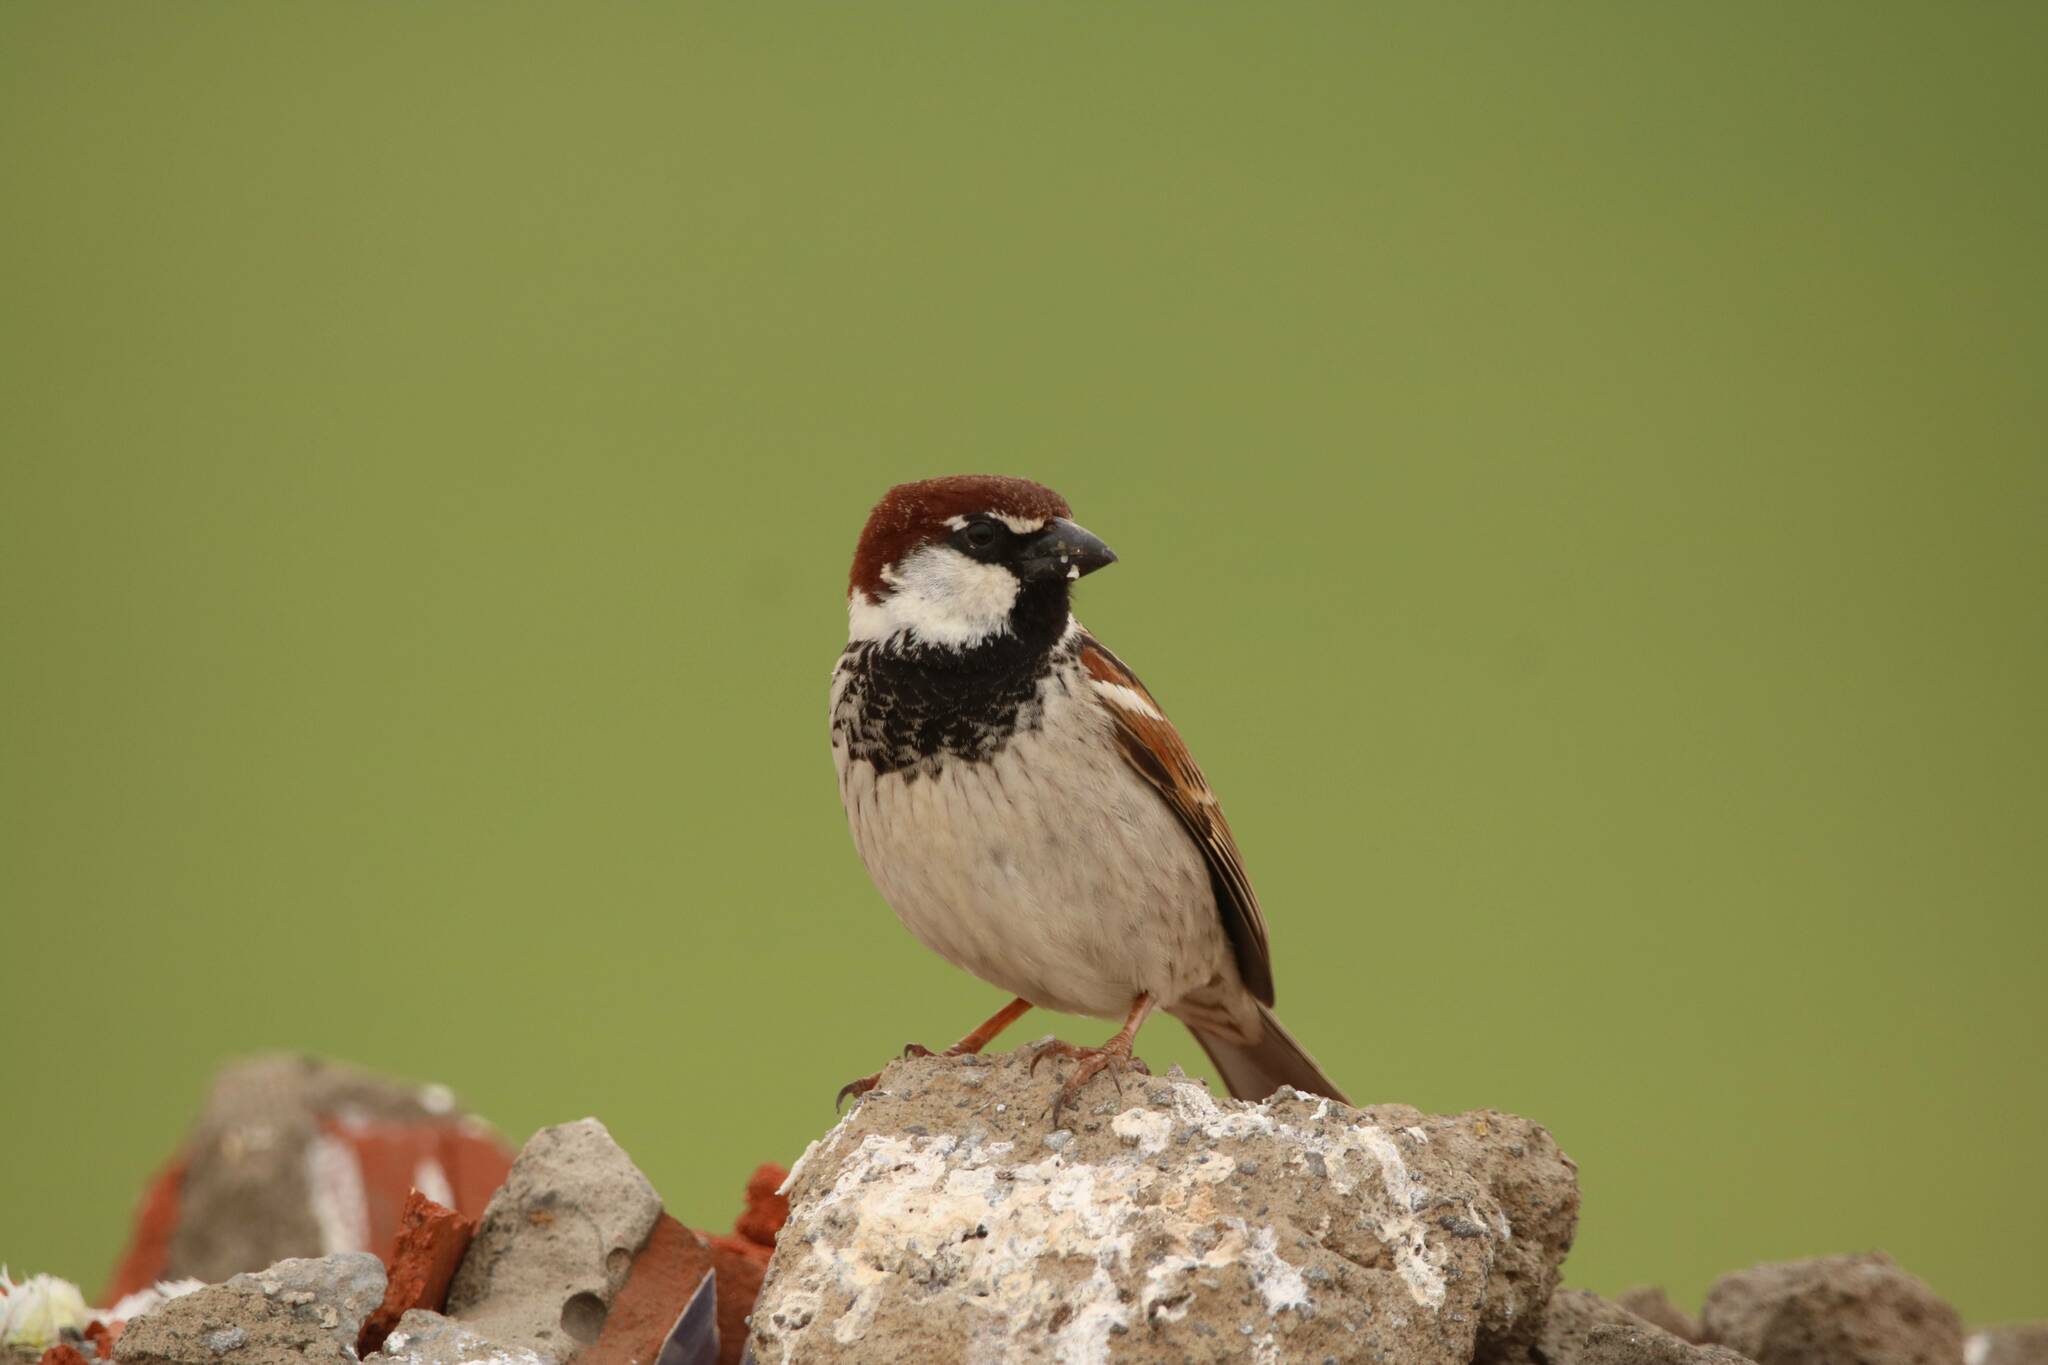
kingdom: Animalia
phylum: Chordata
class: Aves
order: Passeriformes
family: Passeridae
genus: Passer
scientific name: Passer hispaniolensis
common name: Spanish sparrow
